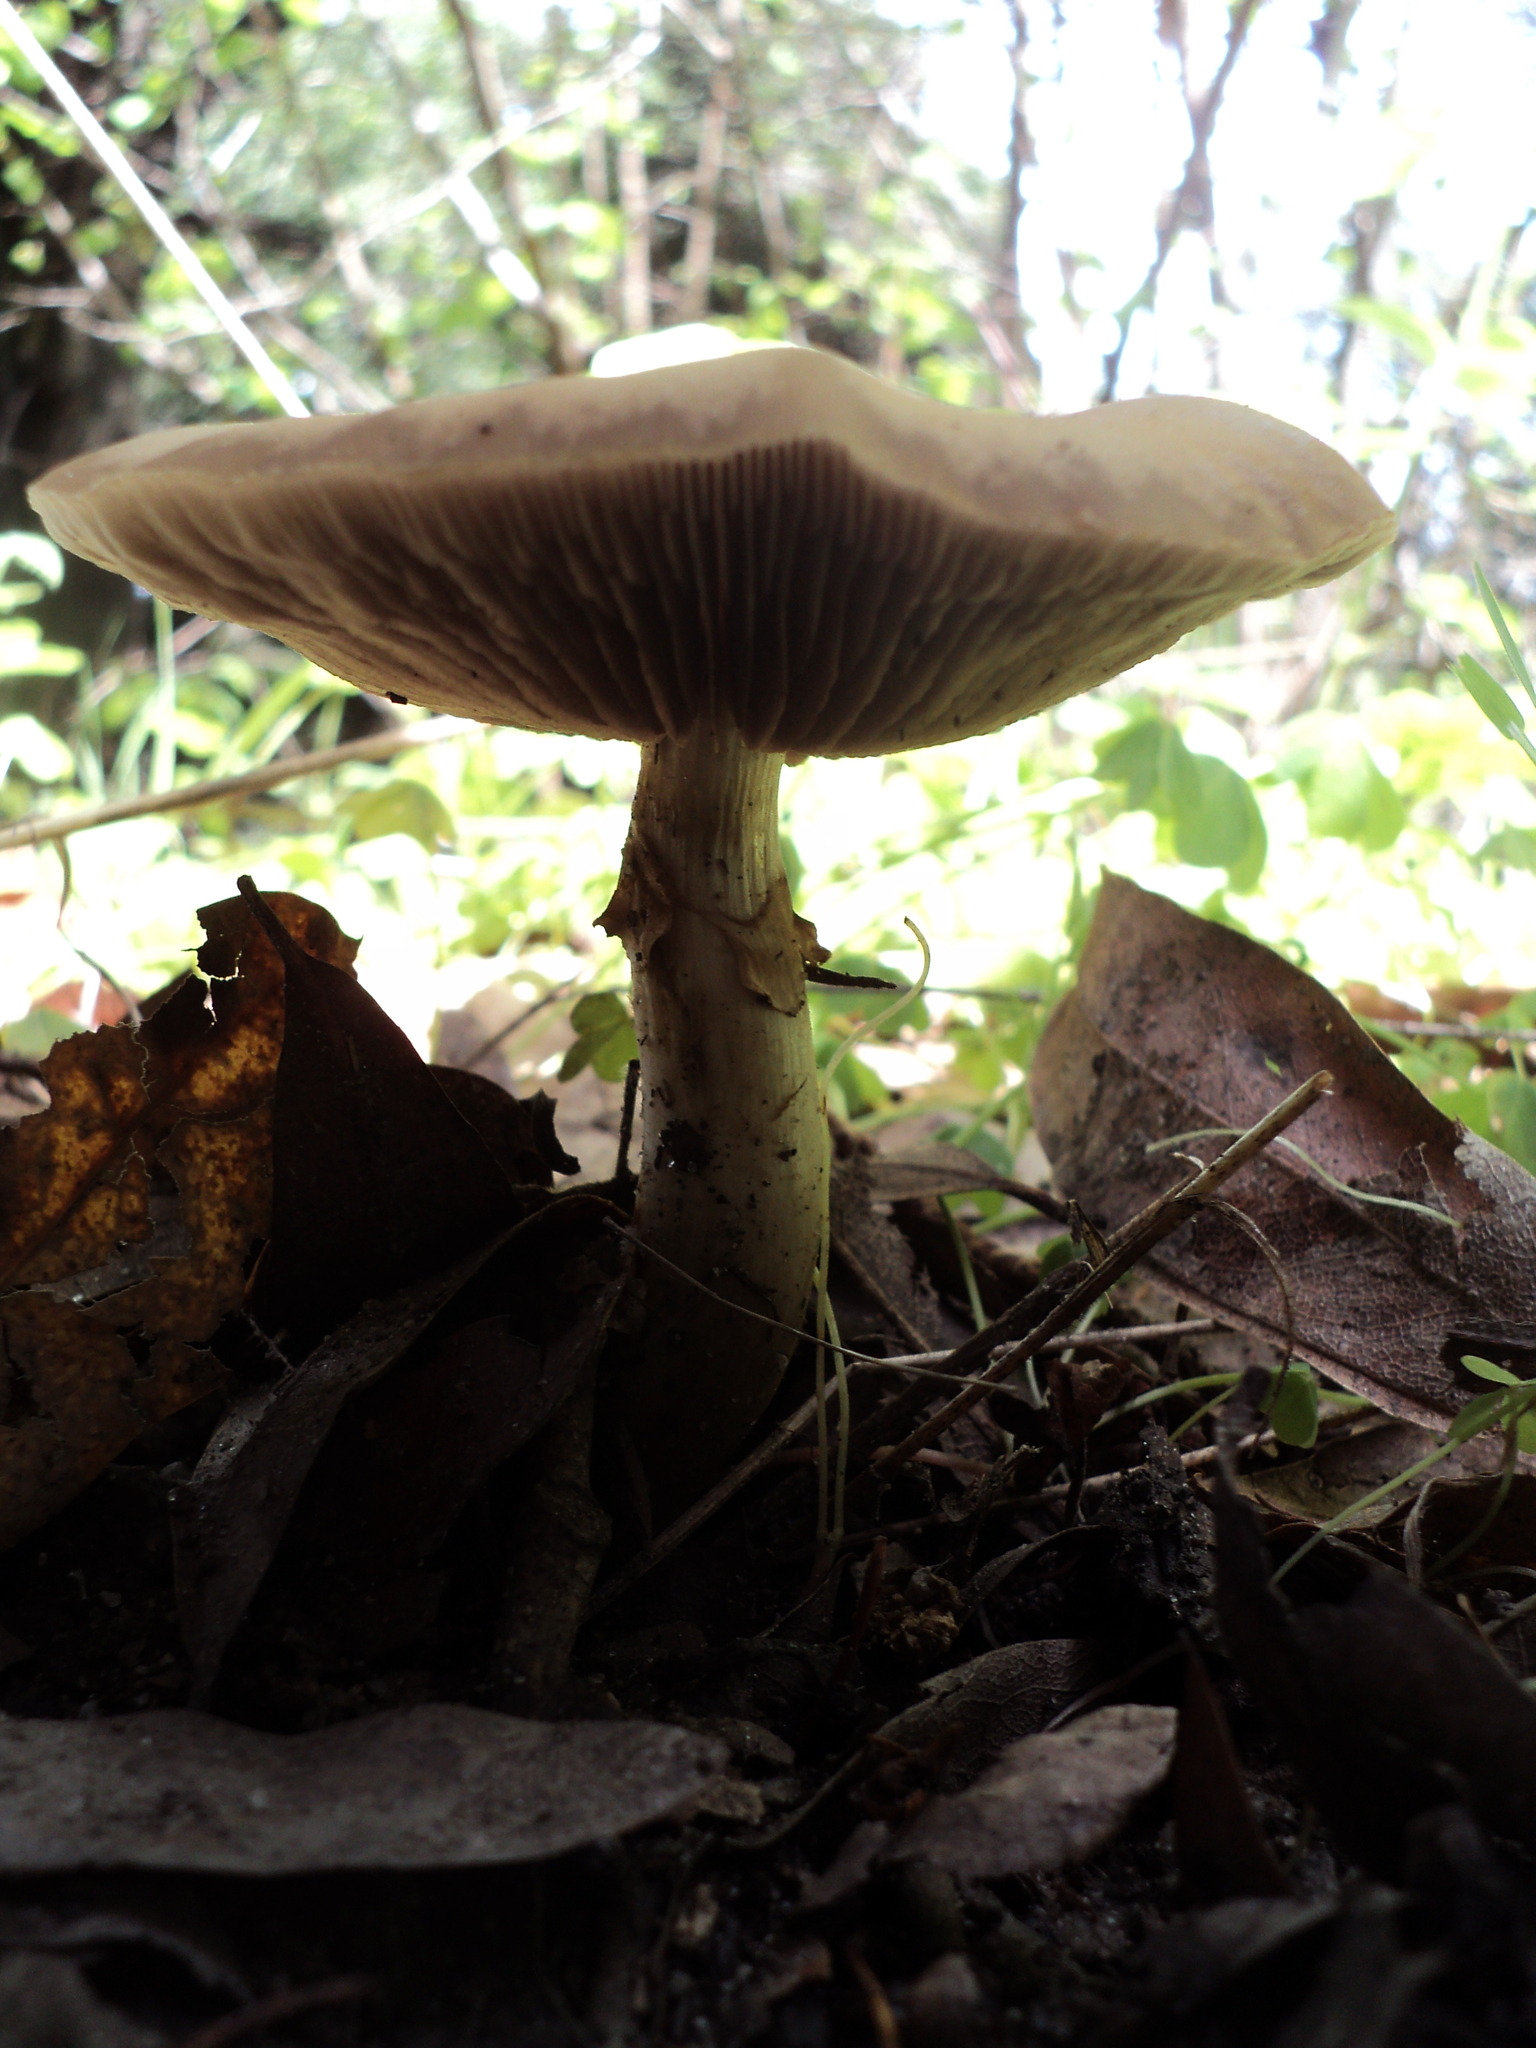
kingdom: Fungi
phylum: Basidiomycota
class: Agaricomycetes
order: Agaricales
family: Strophariaceae
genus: Agrocybe
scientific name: Agrocybe praecox
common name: Spring fieldcap
